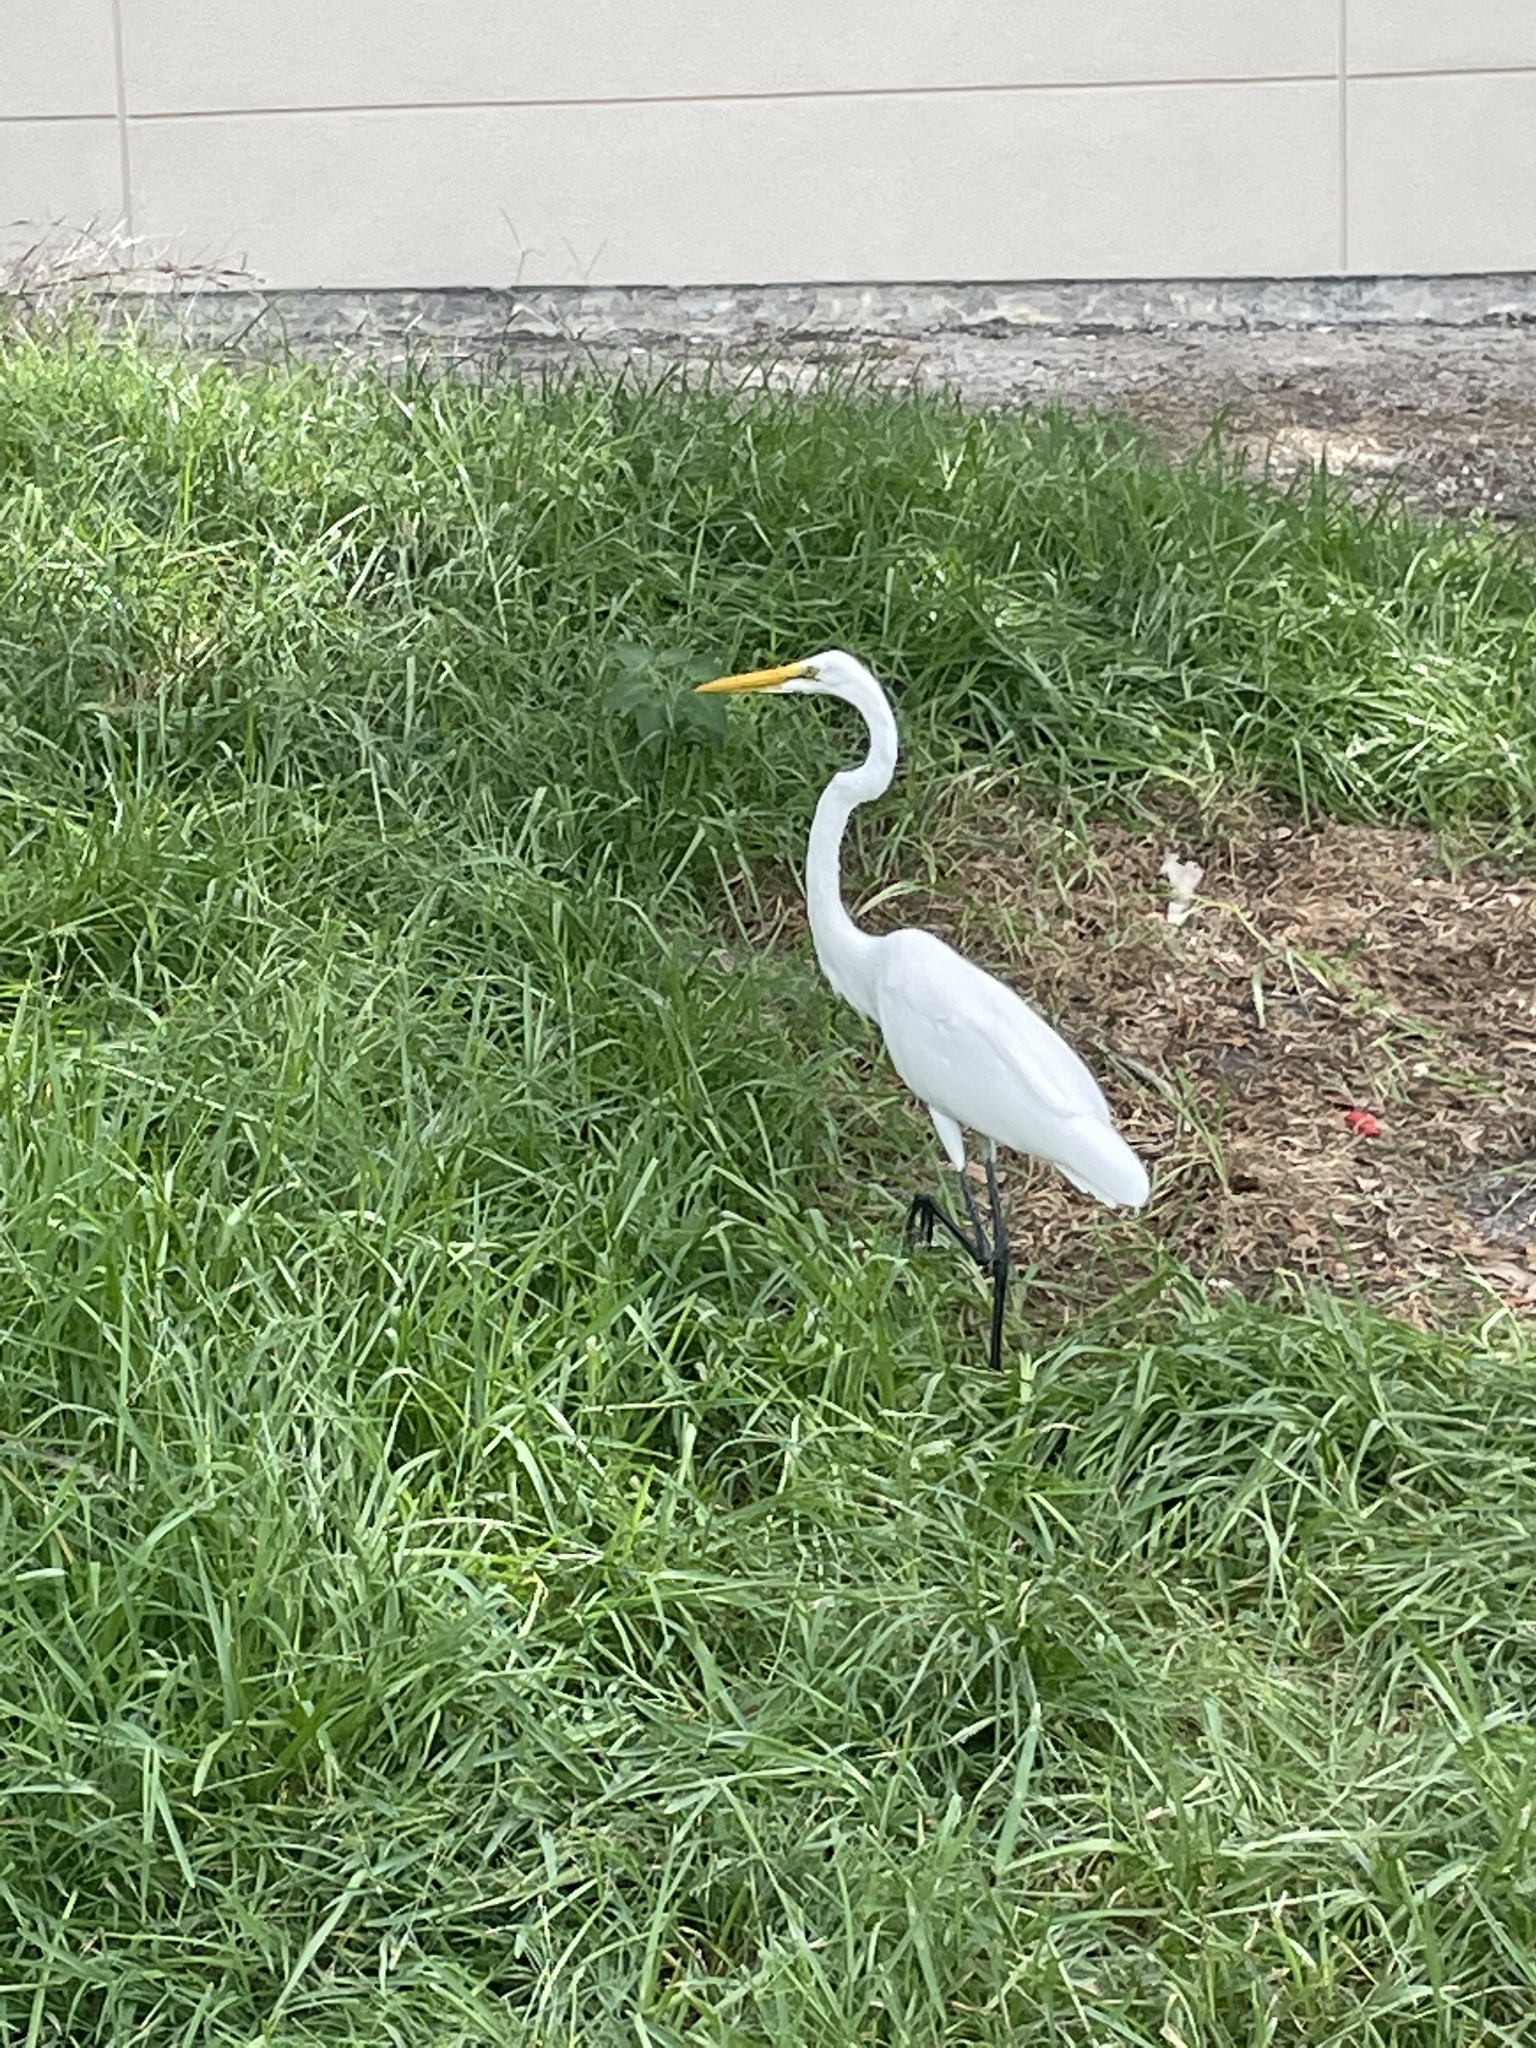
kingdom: Animalia
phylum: Chordata
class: Aves
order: Pelecaniformes
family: Ardeidae
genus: Ardea
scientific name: Ardea alba
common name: Great egret
